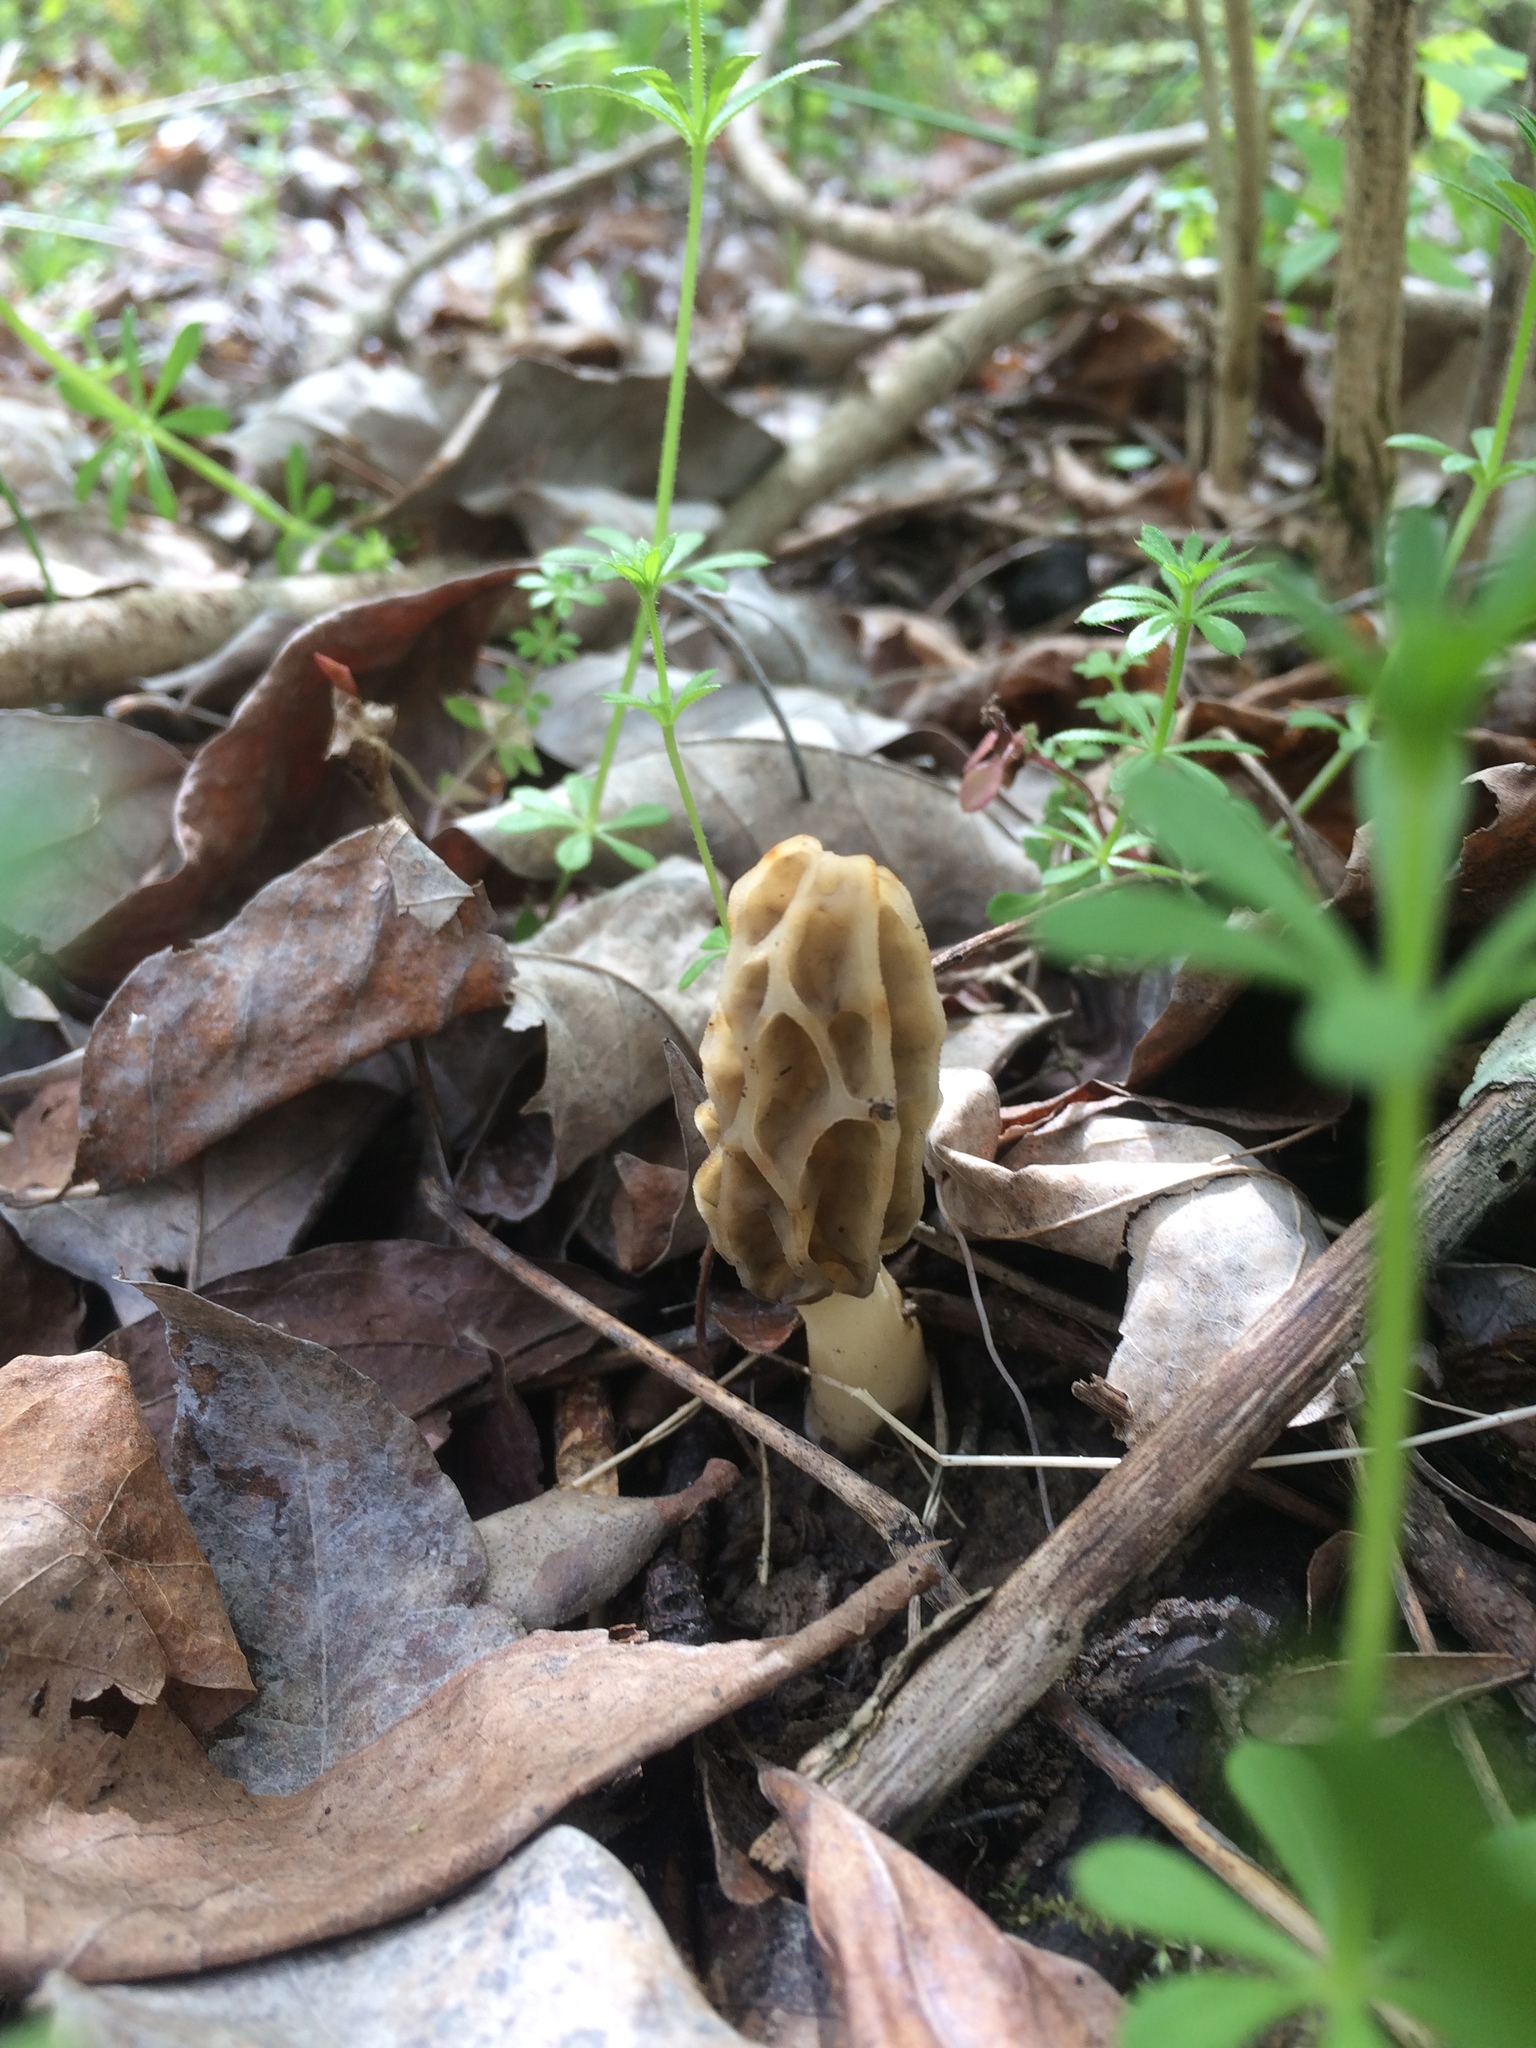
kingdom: Fungi
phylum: Ascomycota
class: Pezizomycetes
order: Pezizales
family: Morchellaceae
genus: Morchella
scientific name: Morchella diminutiva
